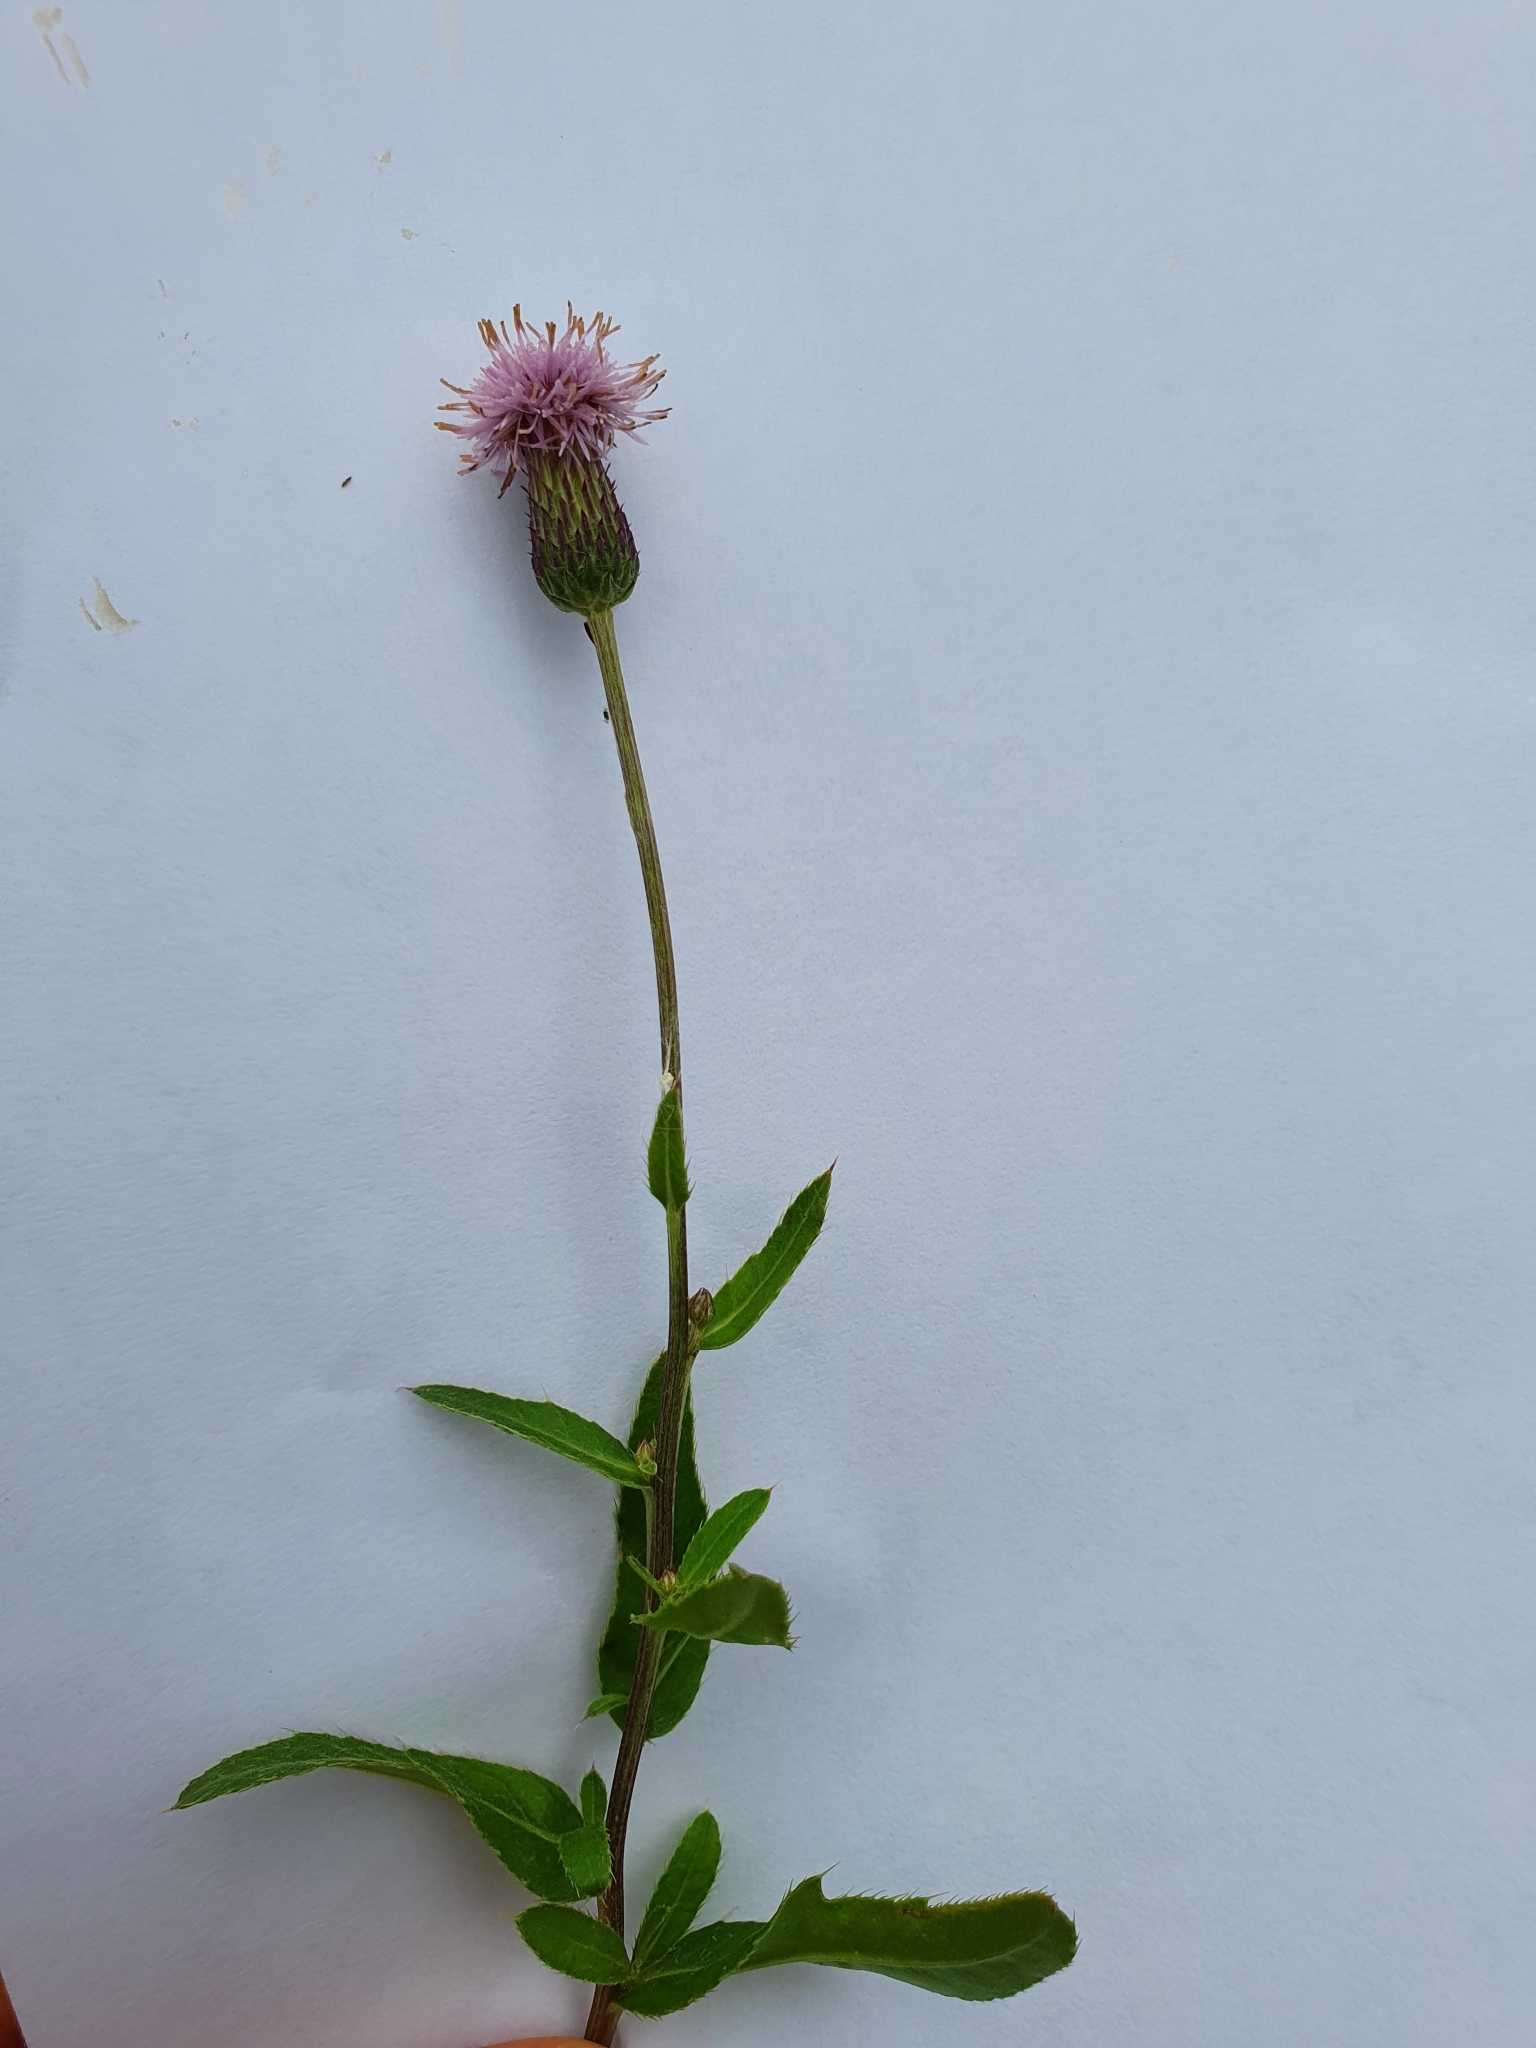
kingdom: Plantae
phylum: Tracheophyta
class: Magnoliopsida
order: Asterales
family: Asteraceae
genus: Cirsium
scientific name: Cirsium arvense
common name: Creeping thistle
